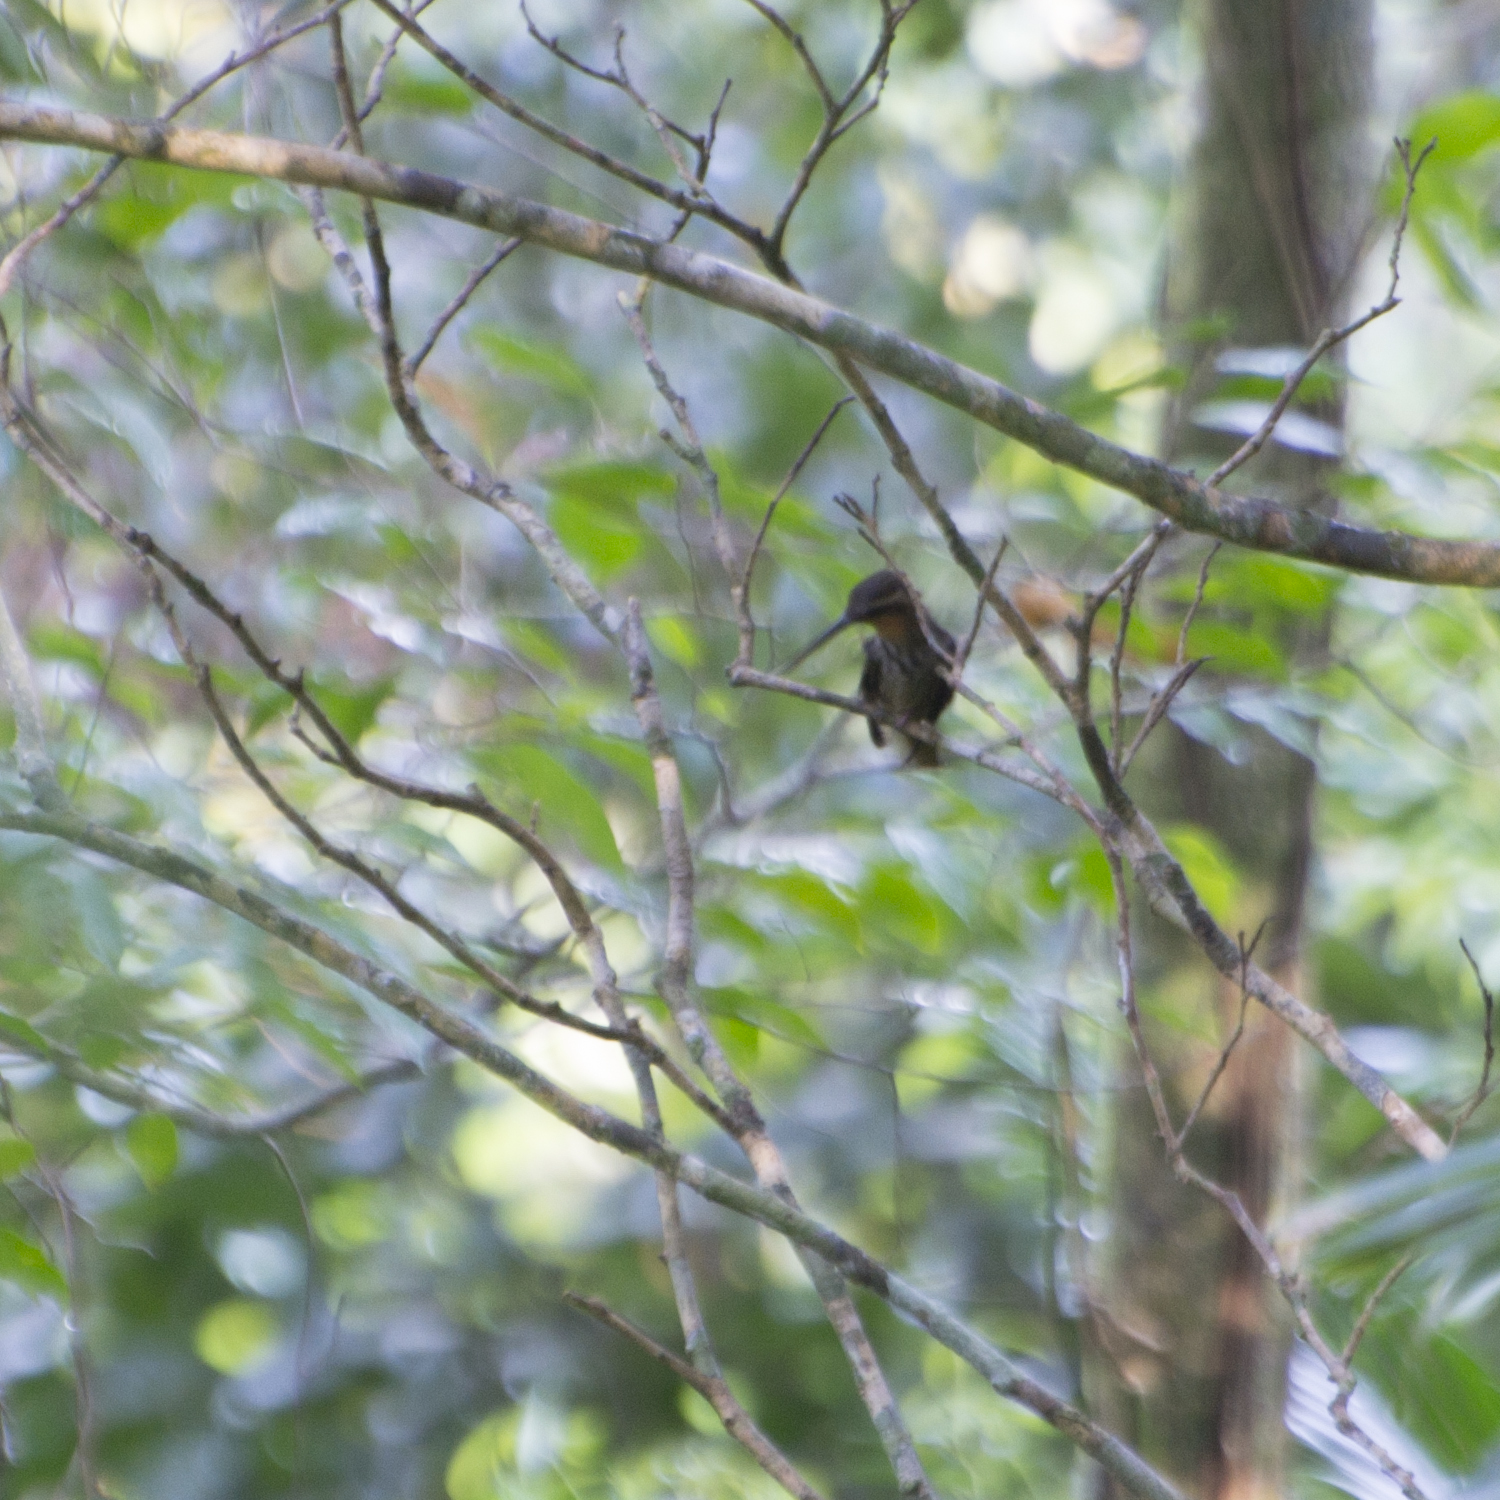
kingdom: Animalia
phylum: Chordata
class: Aves
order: Apodiformes
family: Trochilidae
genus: Ramphodon
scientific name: Ramphodon naevius
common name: Saw-billed hermit
